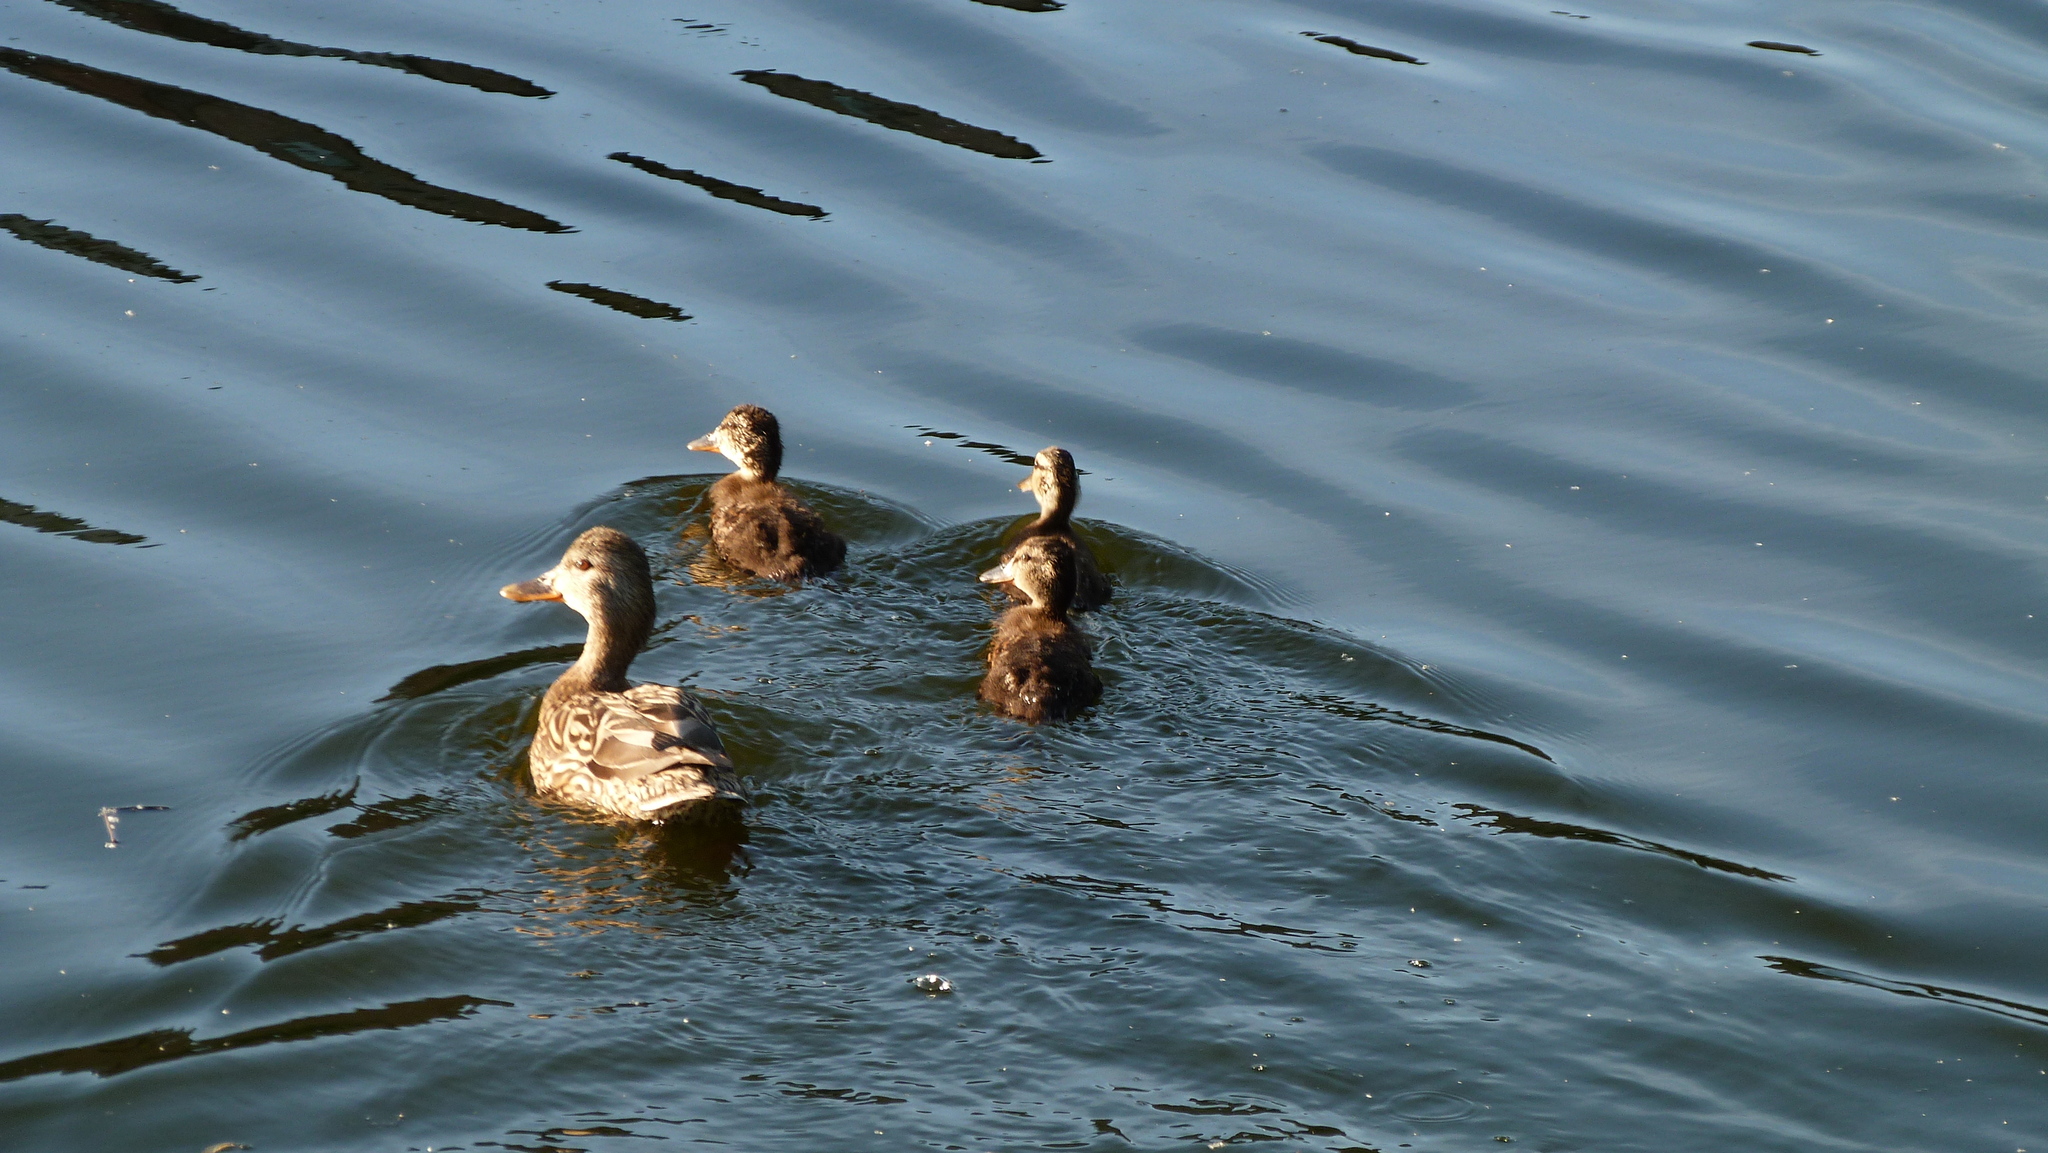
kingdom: Animalia
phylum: Chordata
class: Aves
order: Anseriformes
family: Anatidae
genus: Anas
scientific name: Anas platyrhynchos
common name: Mallard
